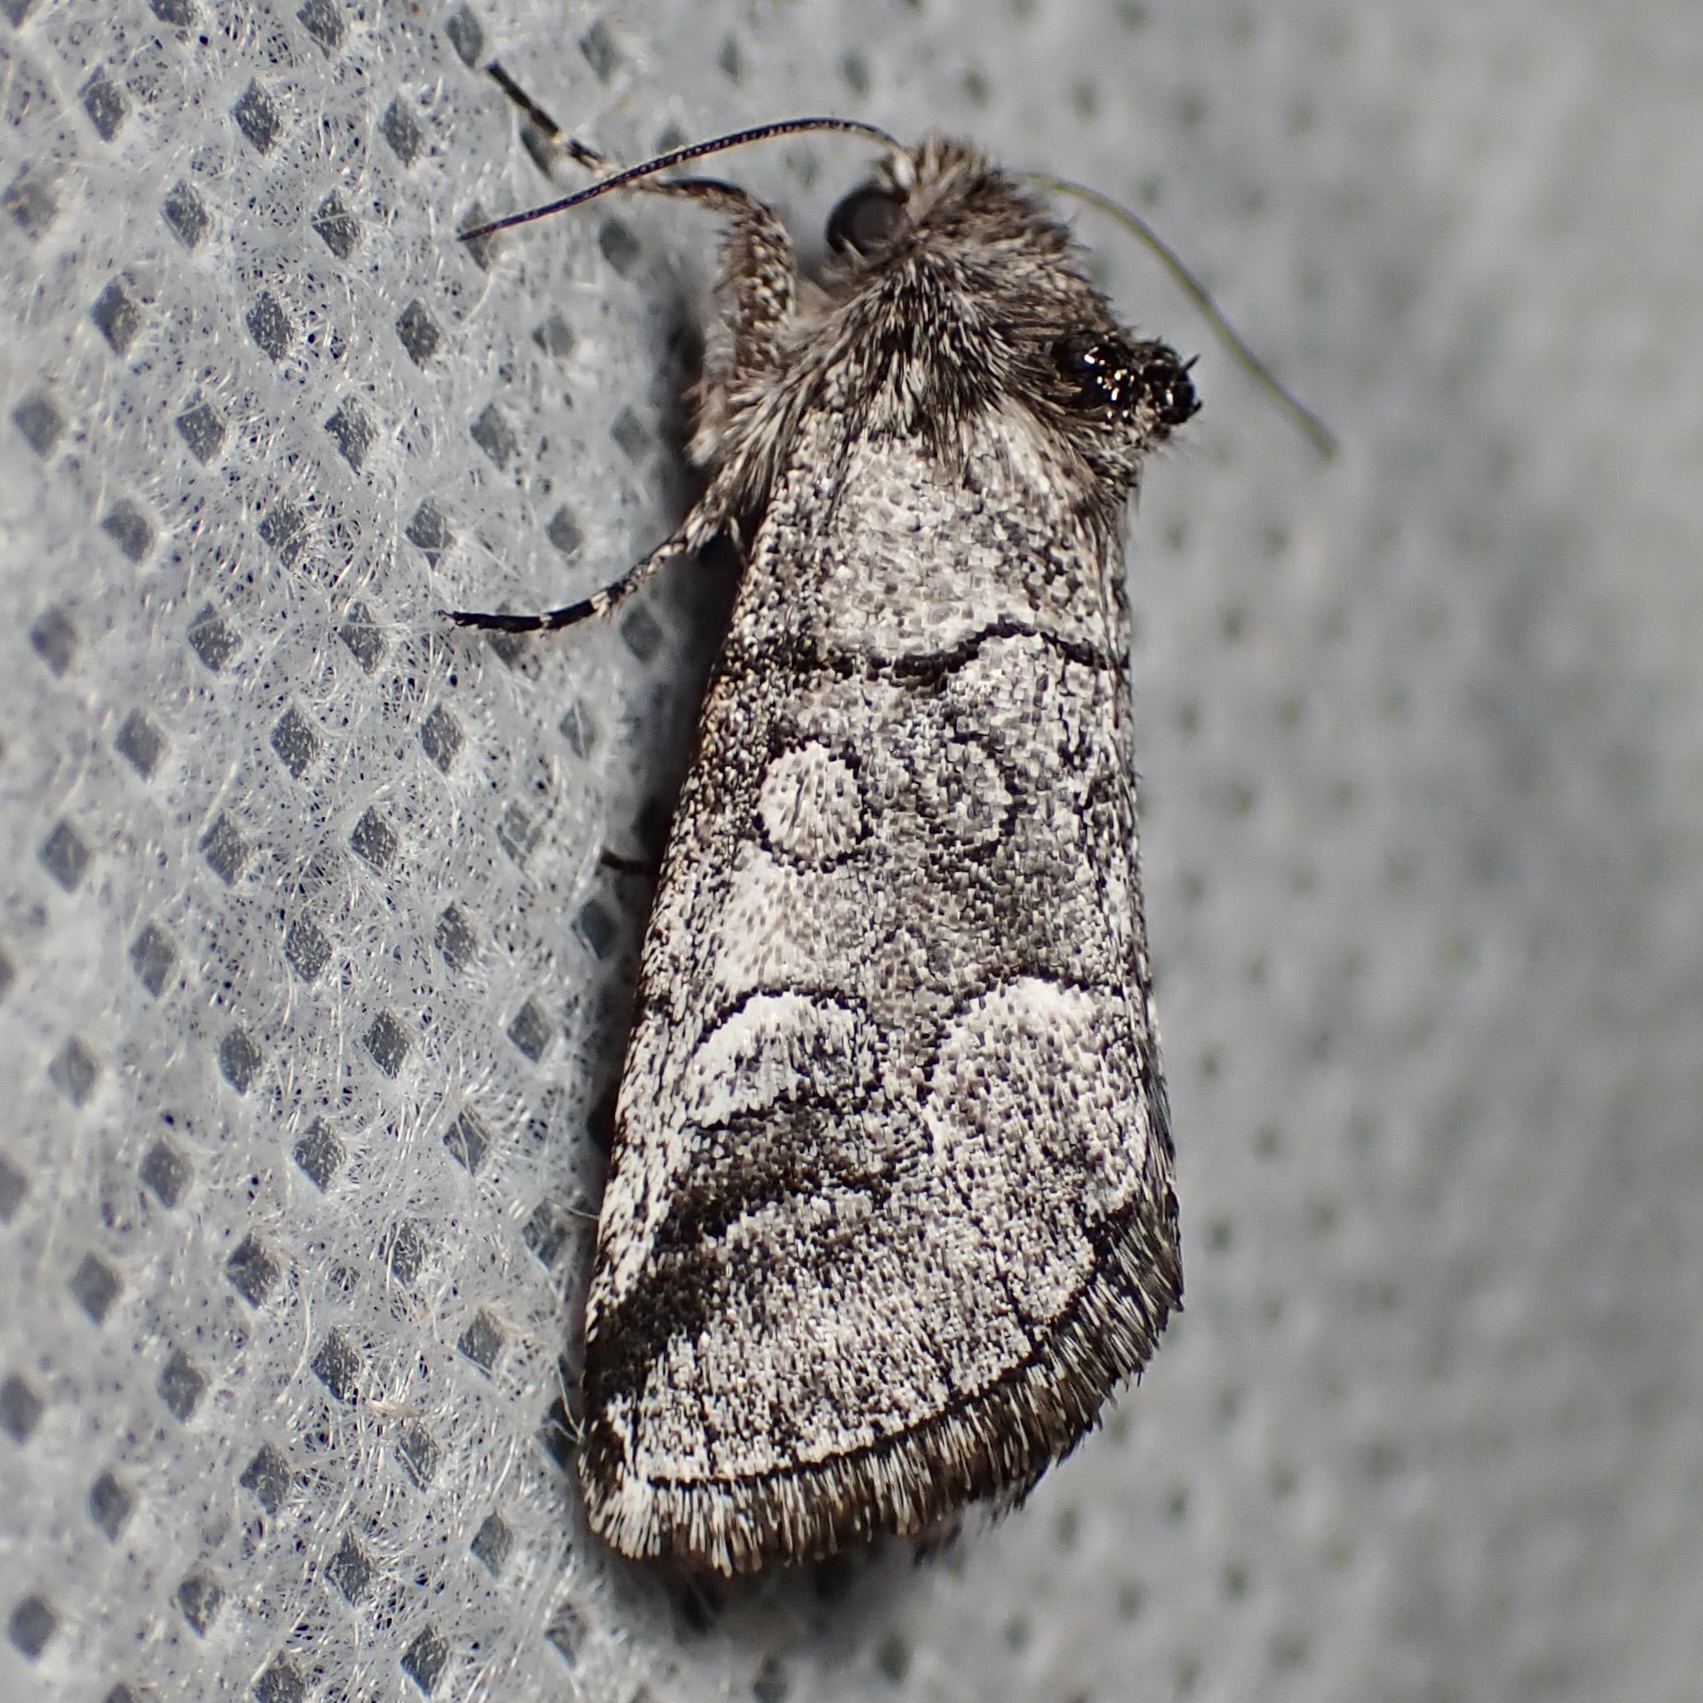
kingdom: Animalia
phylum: Arthropoda
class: Insecta
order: Lepidoptera
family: Noctuidae
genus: Oxycnemis
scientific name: Oxycnemis advena
